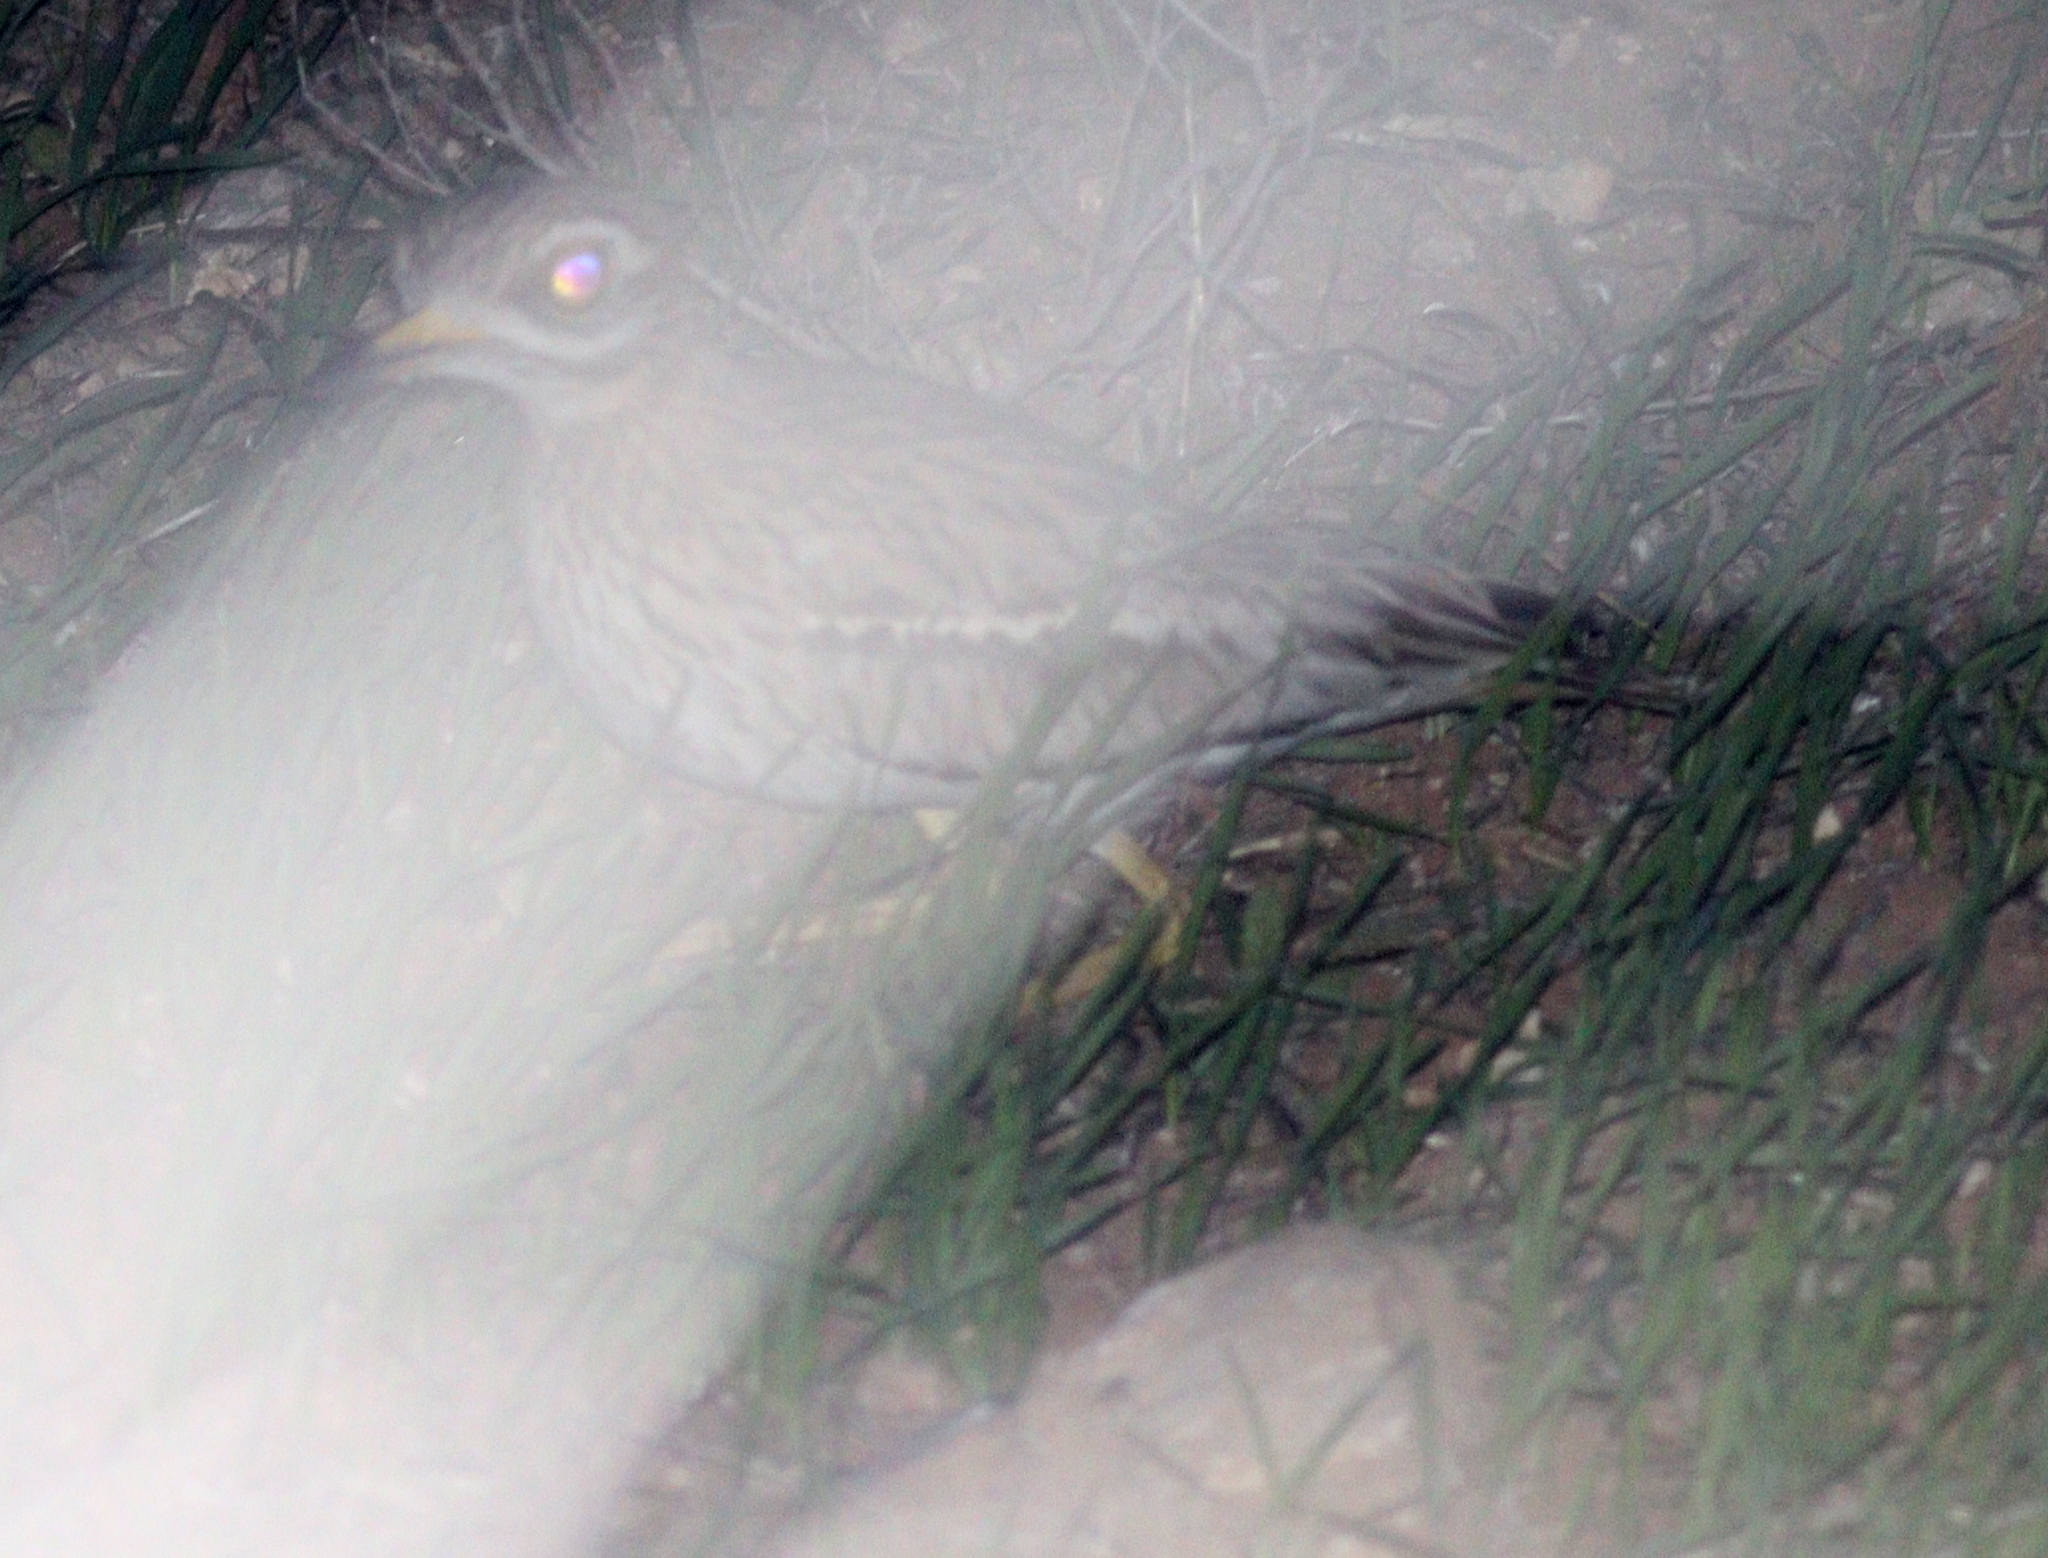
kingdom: Animalia
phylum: Chordata
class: Aves
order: Charadriiformes
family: Burhinidae
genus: Burhinus
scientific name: Burhinus oedicnemus
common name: Eurasian stone-curlew
